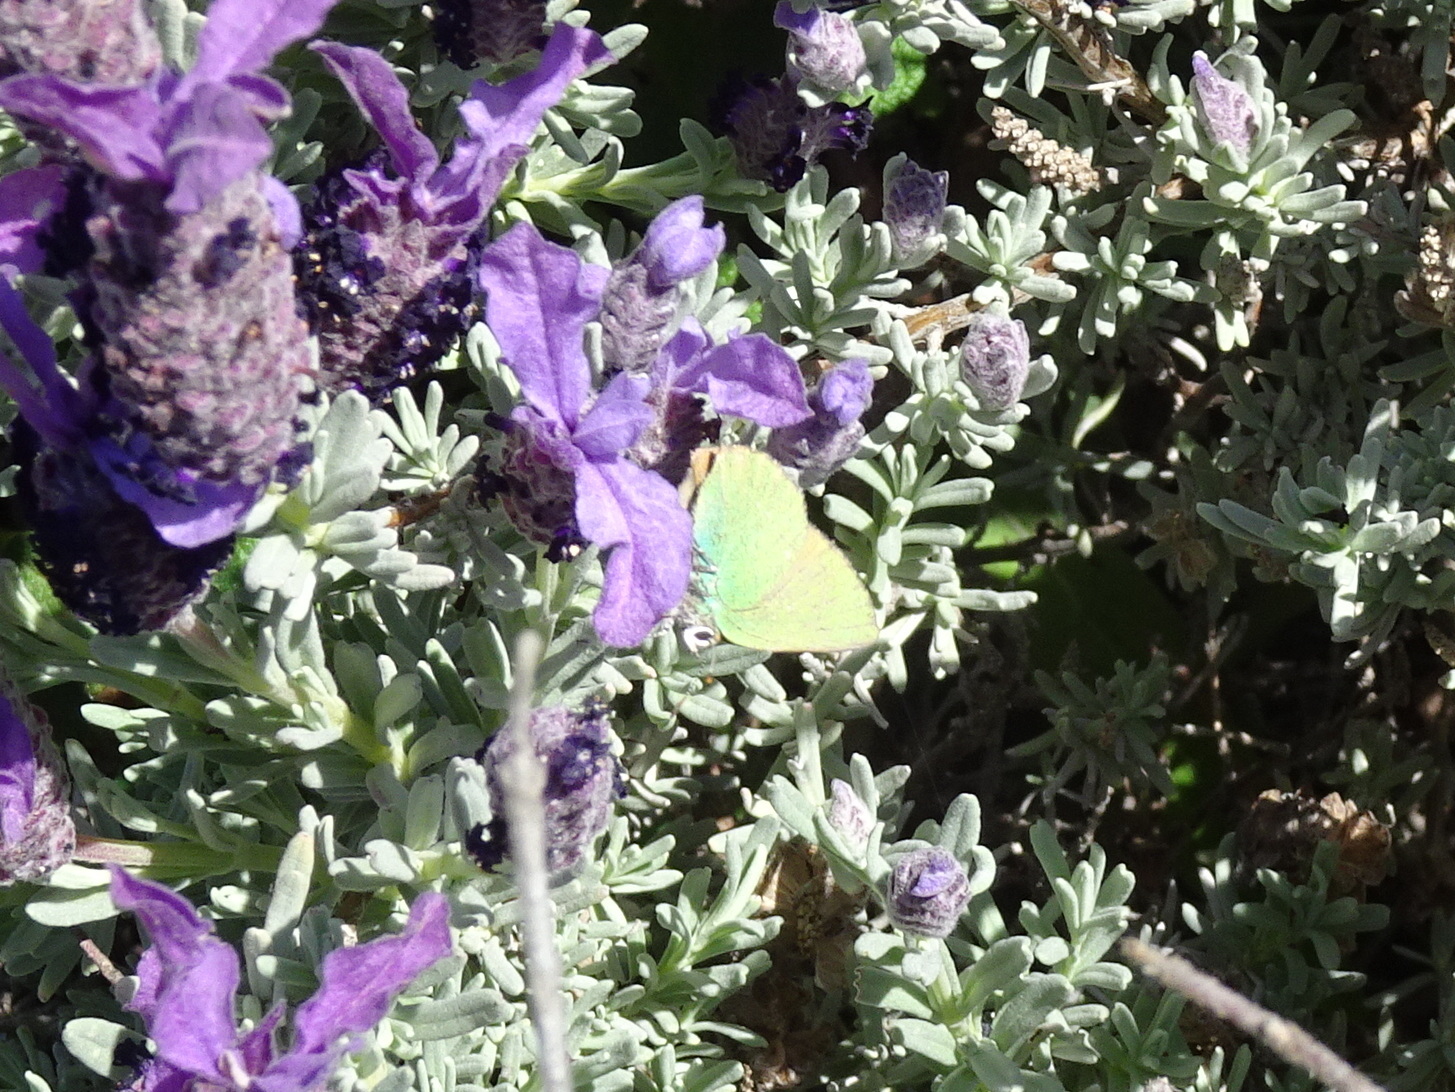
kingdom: Animalia
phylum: Arthropoda
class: Insecta
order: Lepidoptera
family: Lycaenidae
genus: Callophrys
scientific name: Callophrys rubi
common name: Green hairstreak
